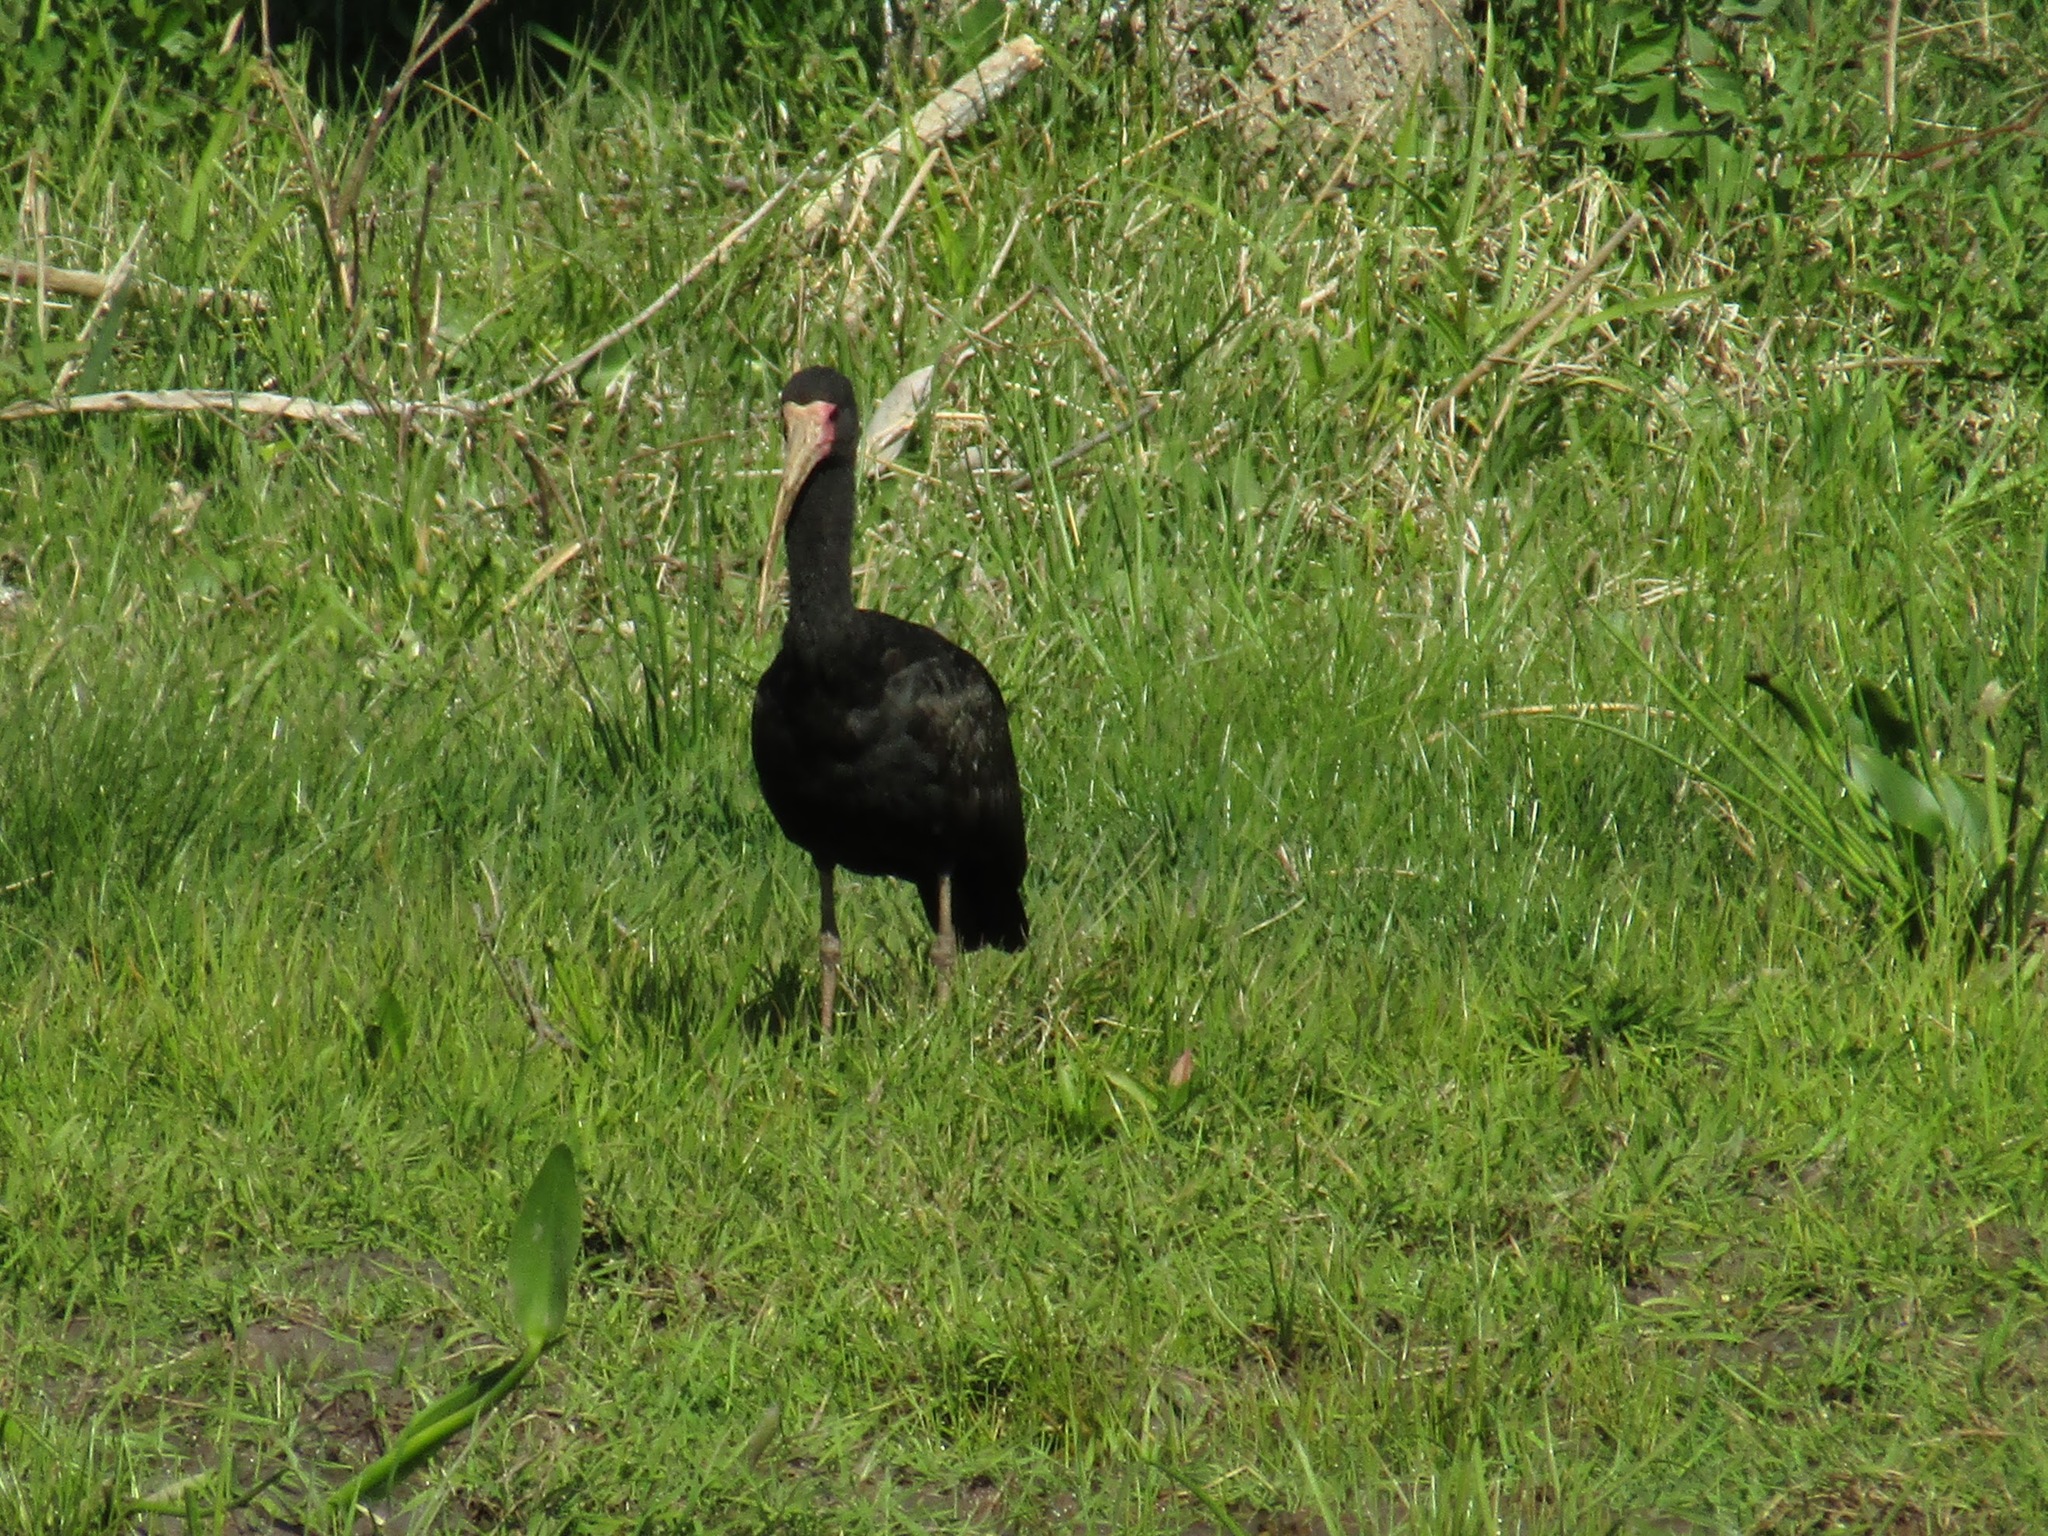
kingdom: Animalia
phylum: Chordata
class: Aves
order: Pelecaniformes
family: Threskiornithidae
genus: Phimosus
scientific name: Phimosus infuscatus
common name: Bare-faced ibis
